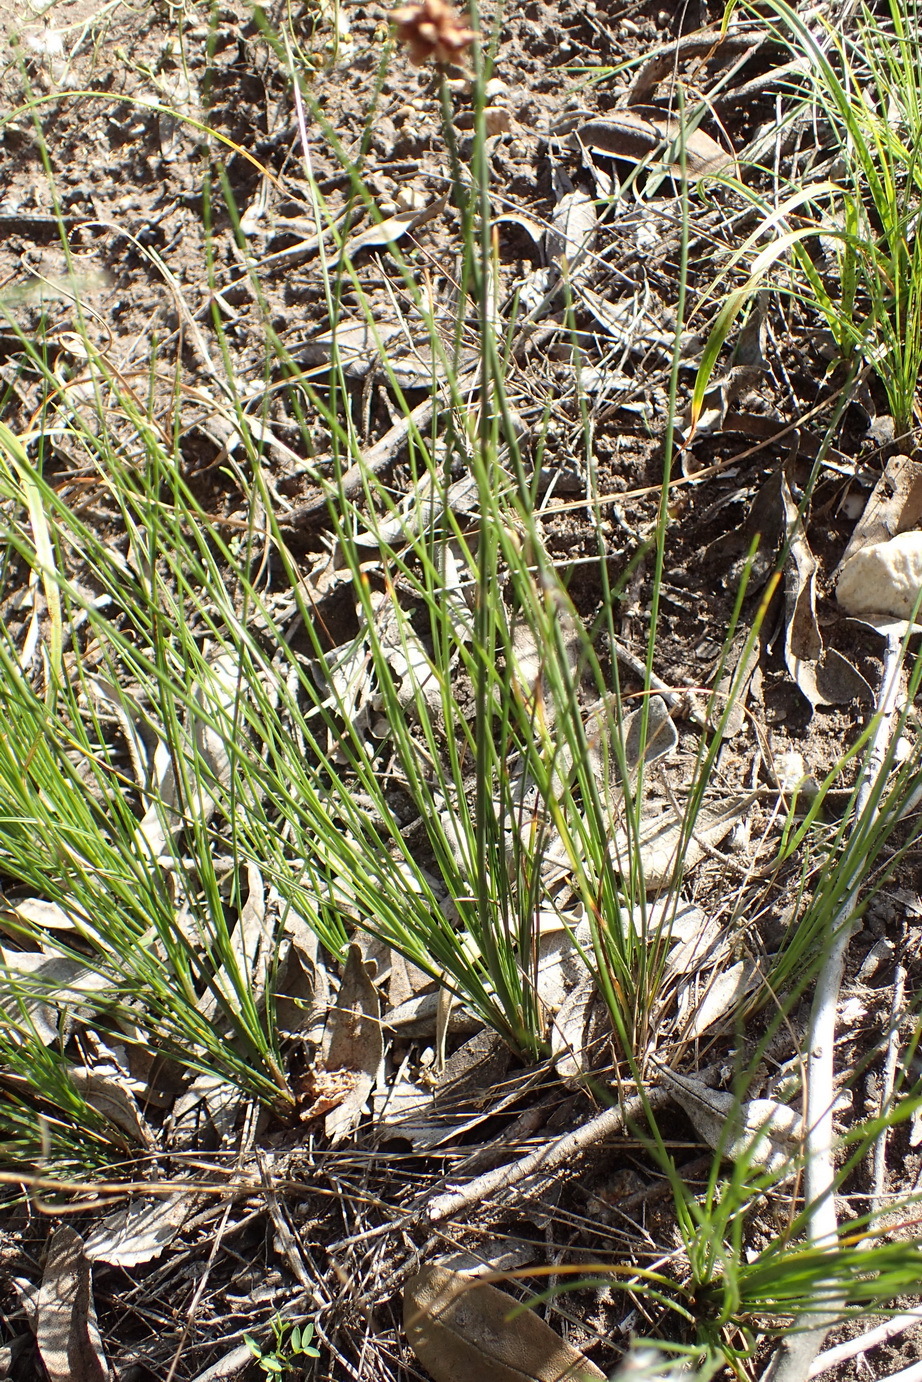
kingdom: Plantae
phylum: Tracheophyta
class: Liliopsida
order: Poales
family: Cyperaceae
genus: Ficinia
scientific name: Ficinia bulbosa
